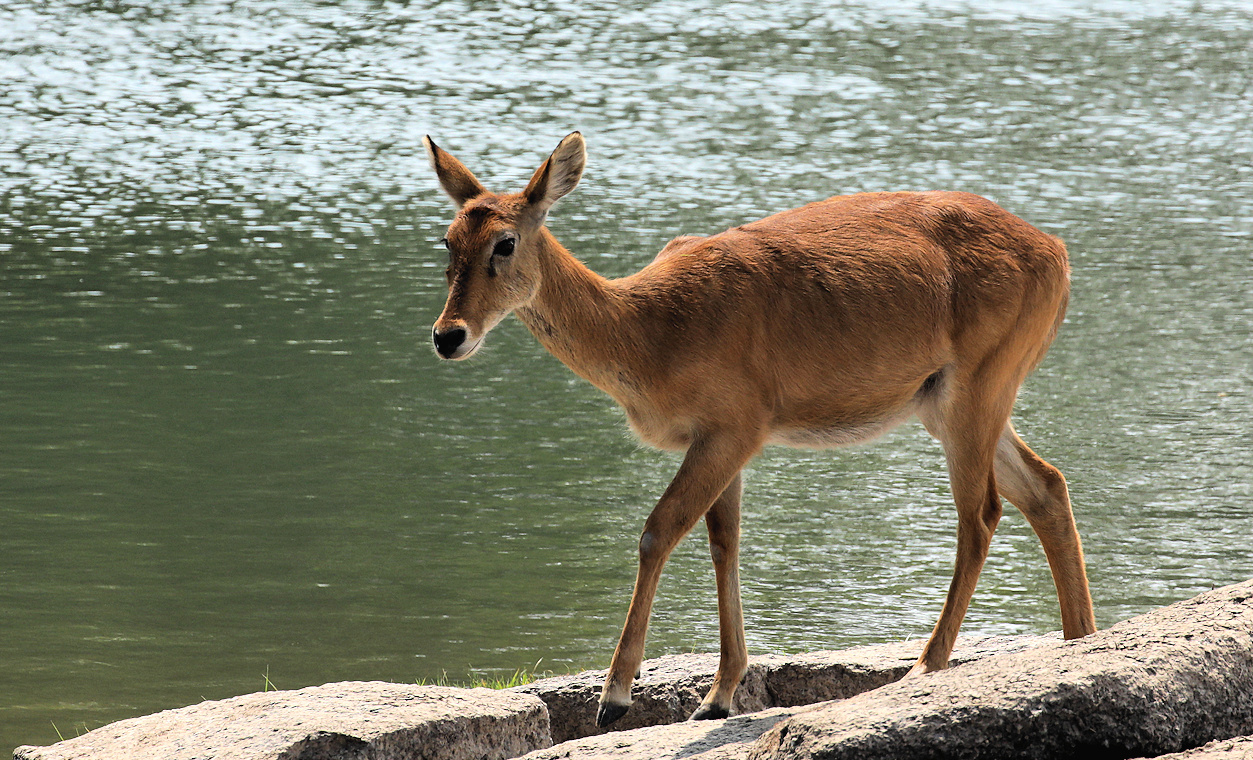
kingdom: Animalia
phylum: Chordata
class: Mammalia
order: Artiodactyla
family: Bovidae
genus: Kobus
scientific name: Kobus vardonii
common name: Puku
